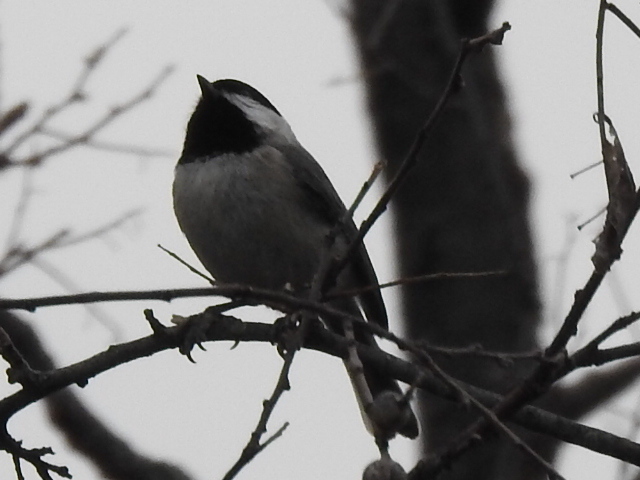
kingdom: Animalia
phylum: Chordata
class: Aves
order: Passeriformes
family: Paridae
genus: Poecile
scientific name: Poecile carolinensis
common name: Carolina chickadee
